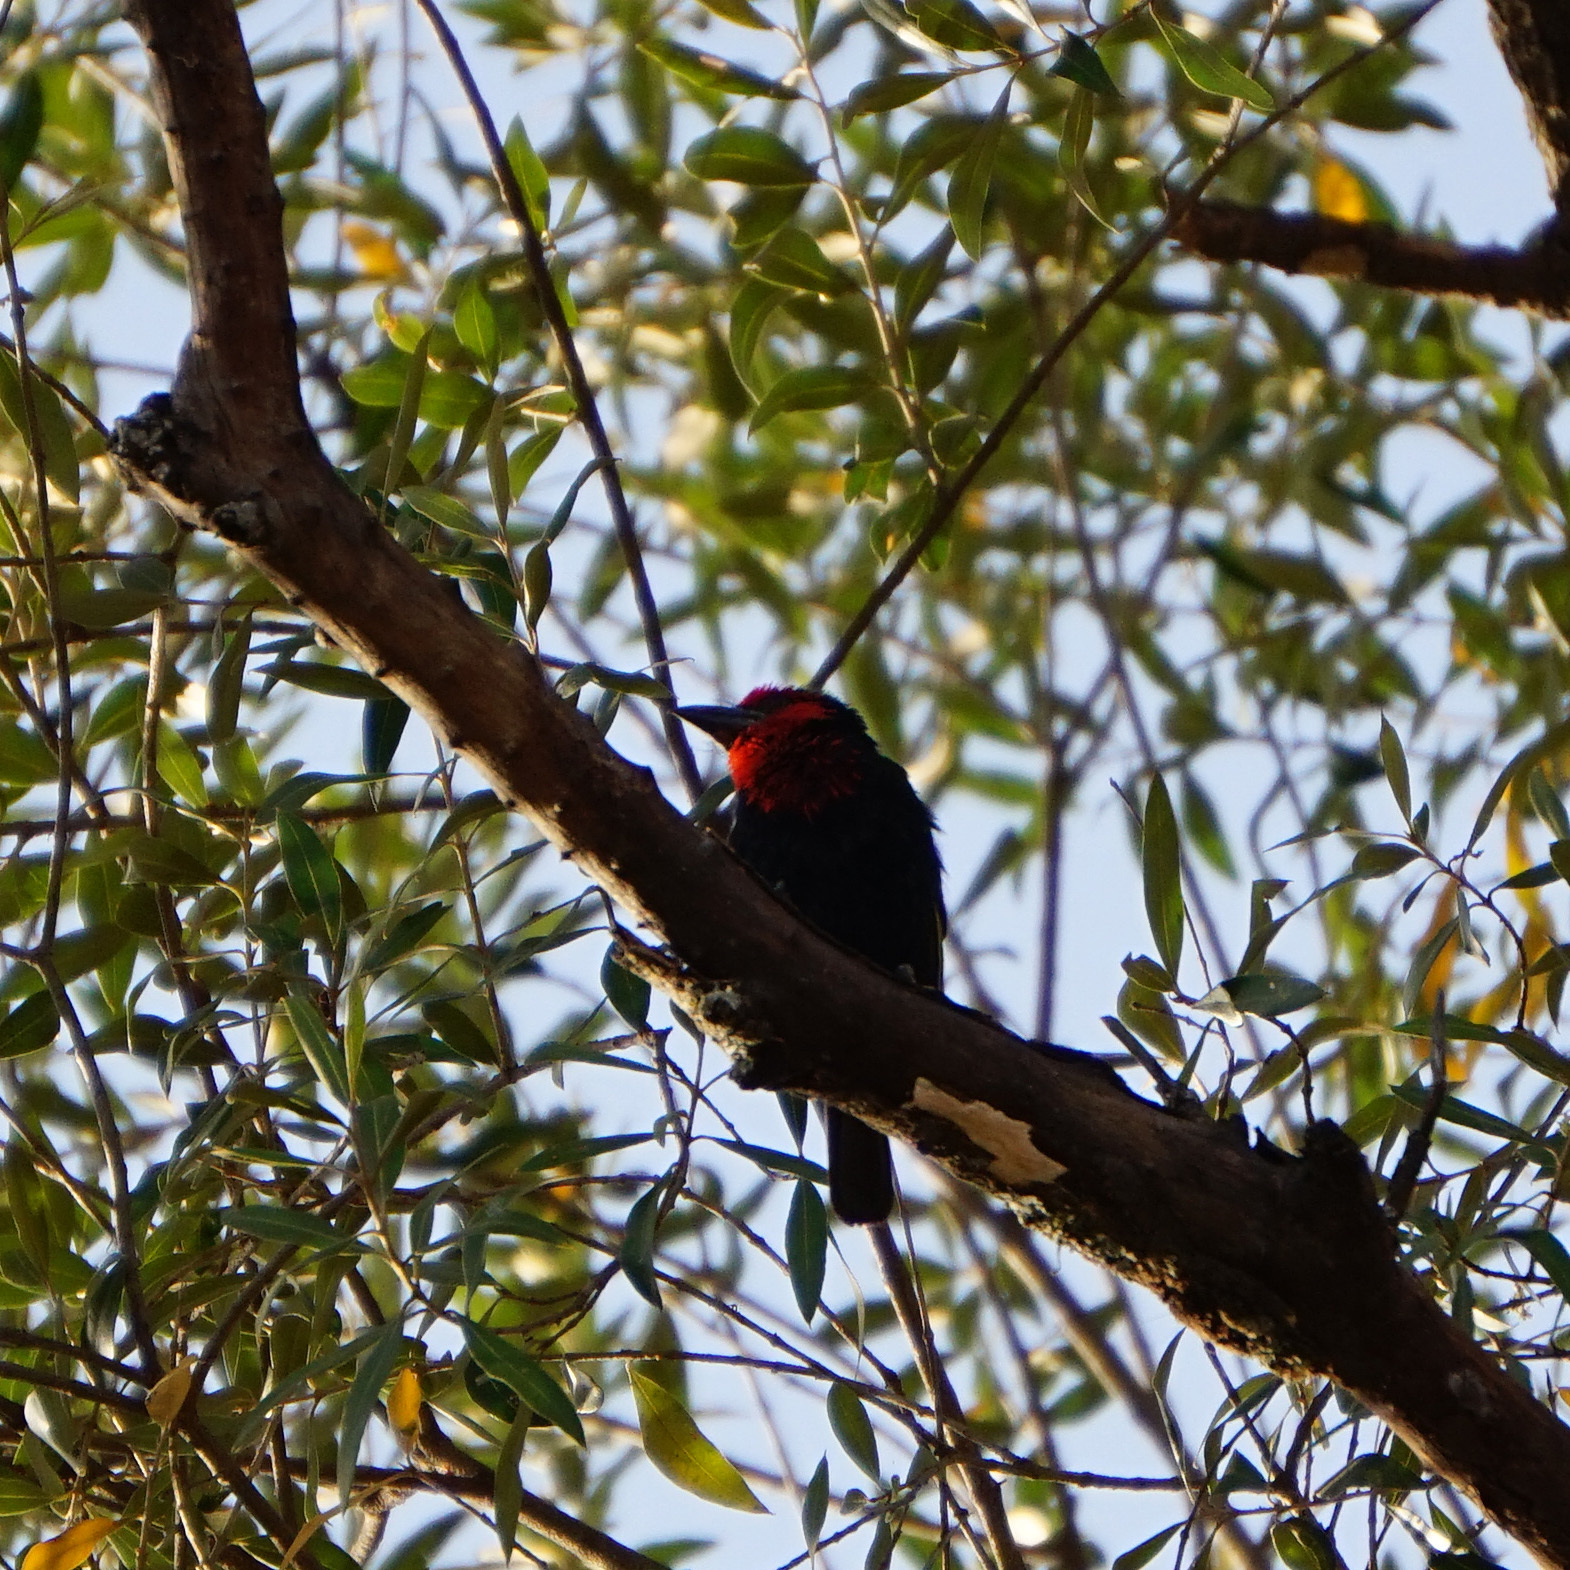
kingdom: Animalia
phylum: Chordata
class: Aves
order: Piciformes
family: Lybiidae
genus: Lybius
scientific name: Lybius guifsobalito
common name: Black-billed barbet
